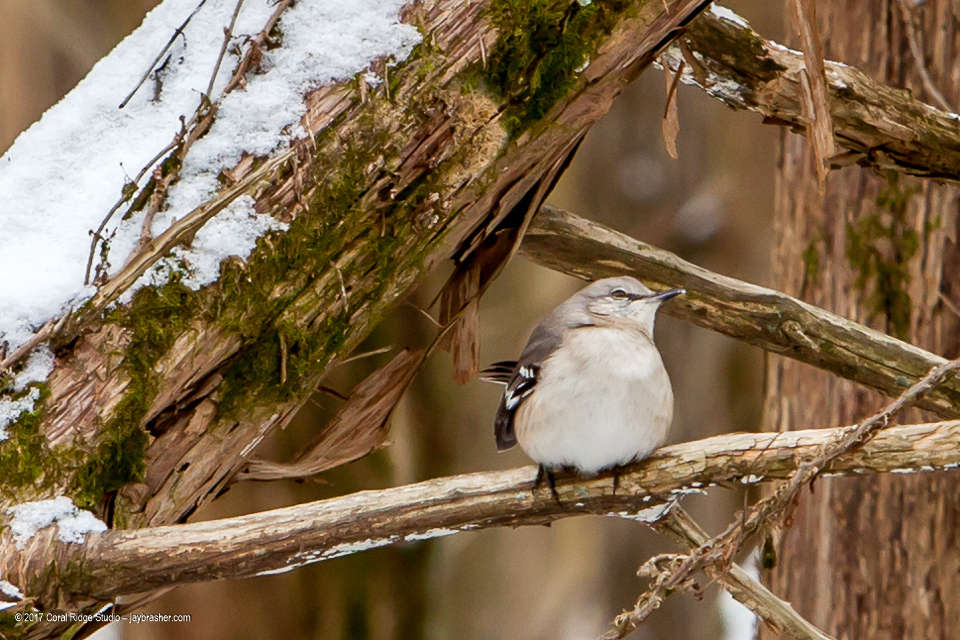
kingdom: Animalia
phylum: Chordata
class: Aves
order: Passeriformes
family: Mimidae
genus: Mimus
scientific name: Mimus polyglottos
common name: Northern mockingbird
